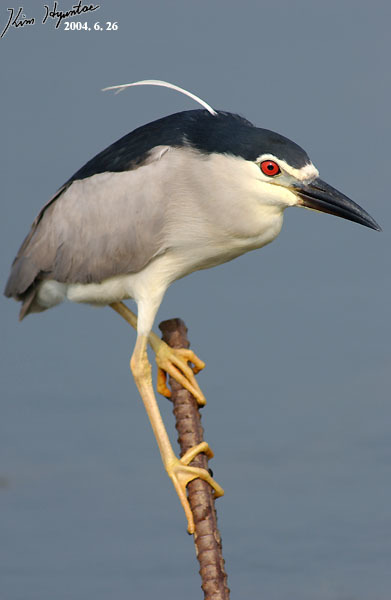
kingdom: Animalia
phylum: Chordata
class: Aves
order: Pelecaniformes
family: Ardeidae
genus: Nycticorax
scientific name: Nycticorax nycticorax
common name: Black-crowned night heron
